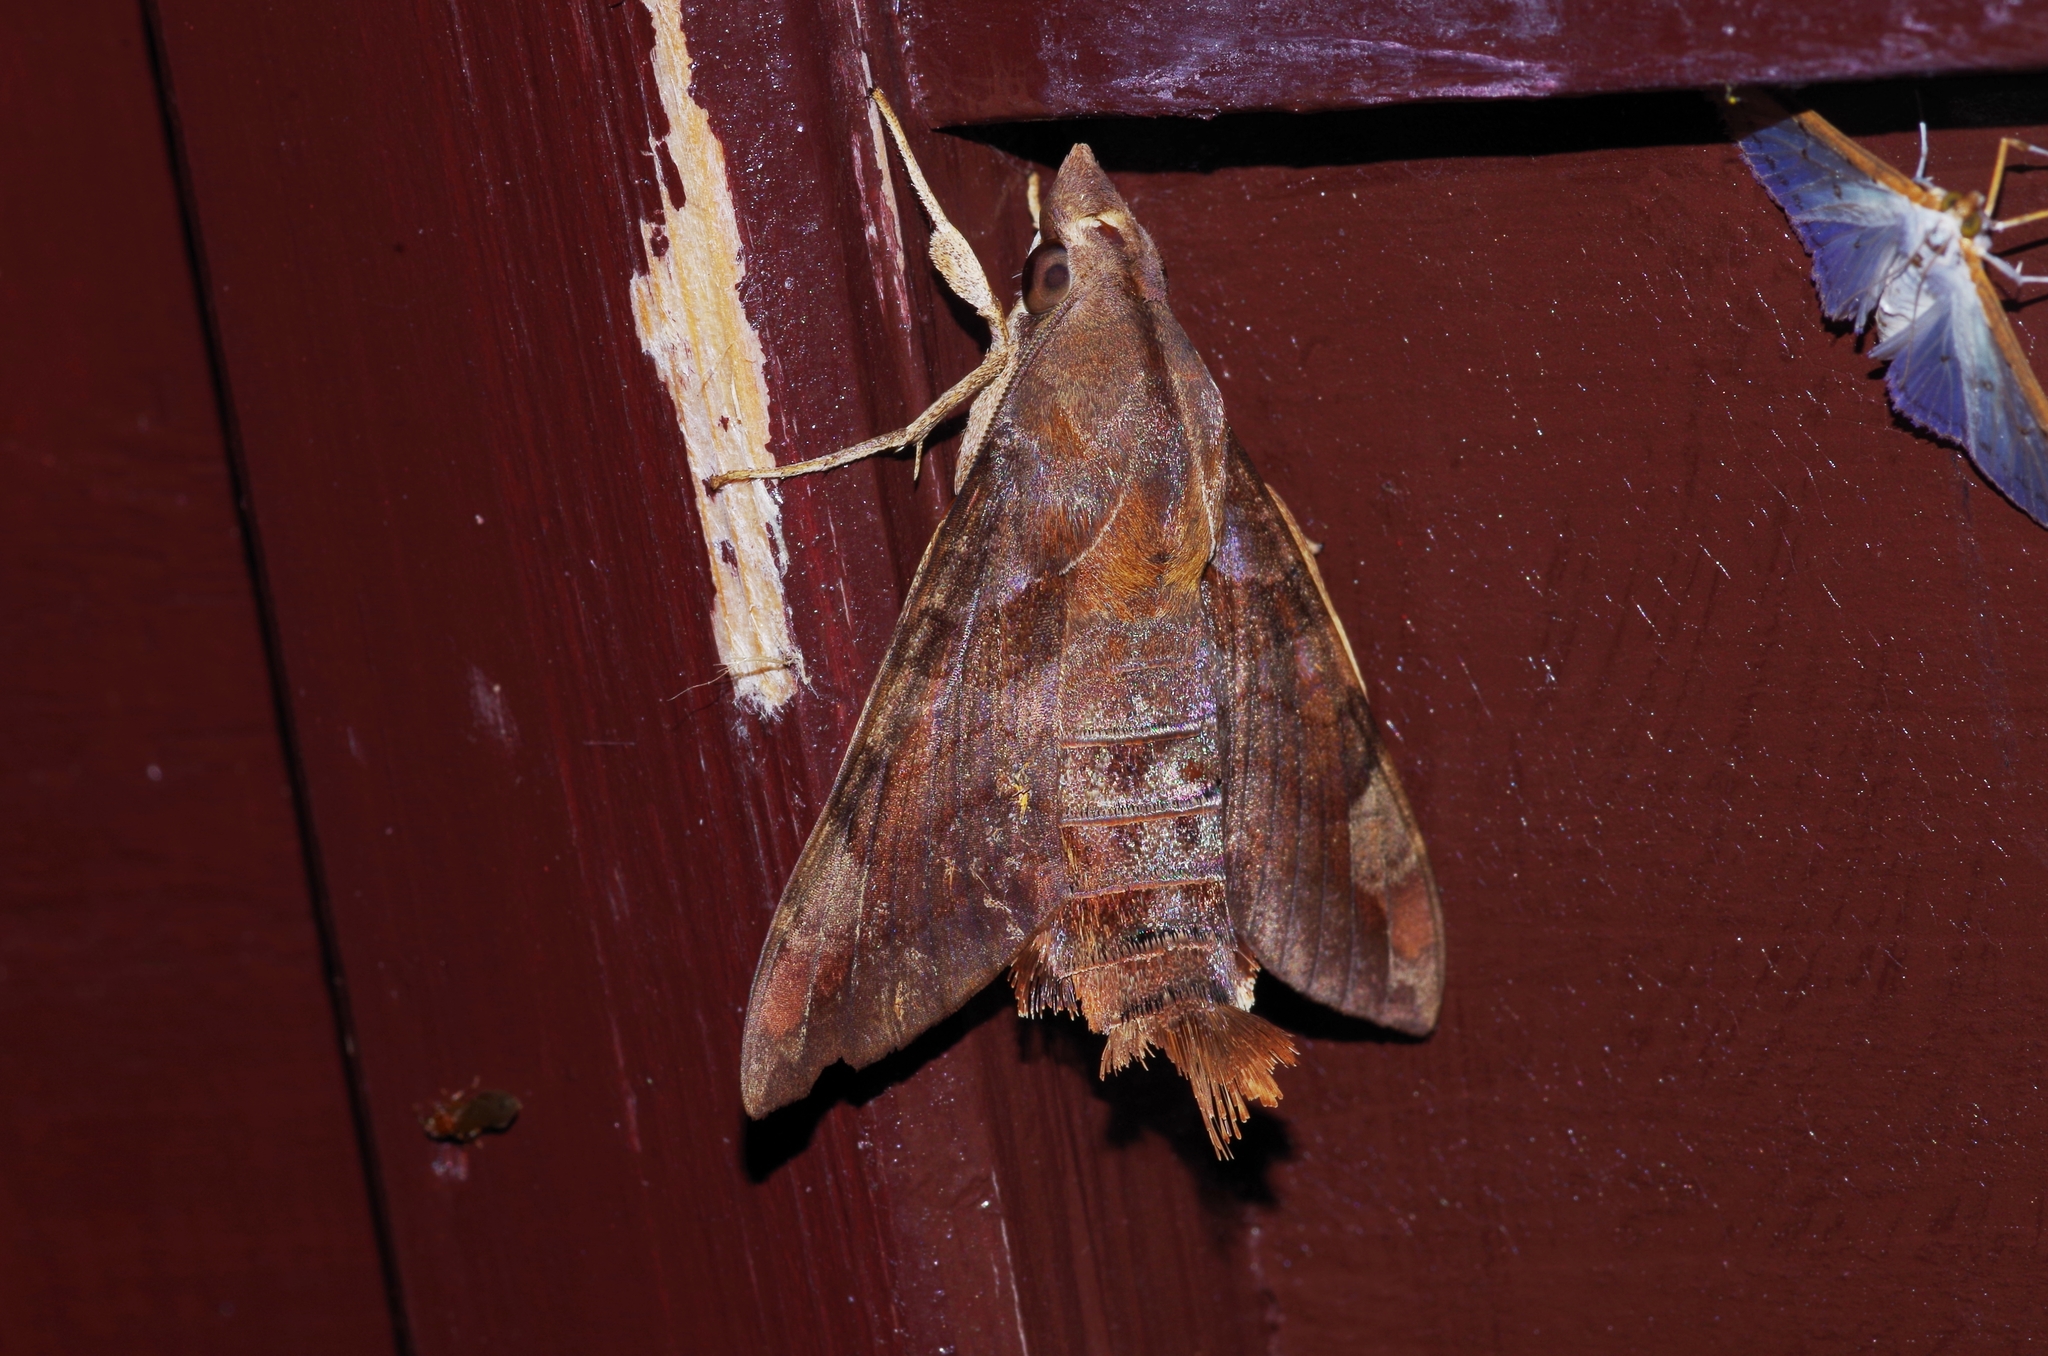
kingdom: Animalia
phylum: Arthropoda
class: Insecta
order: Lepidoptera
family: Sphingidae
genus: Macroglossum
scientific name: Macroglossum saga
